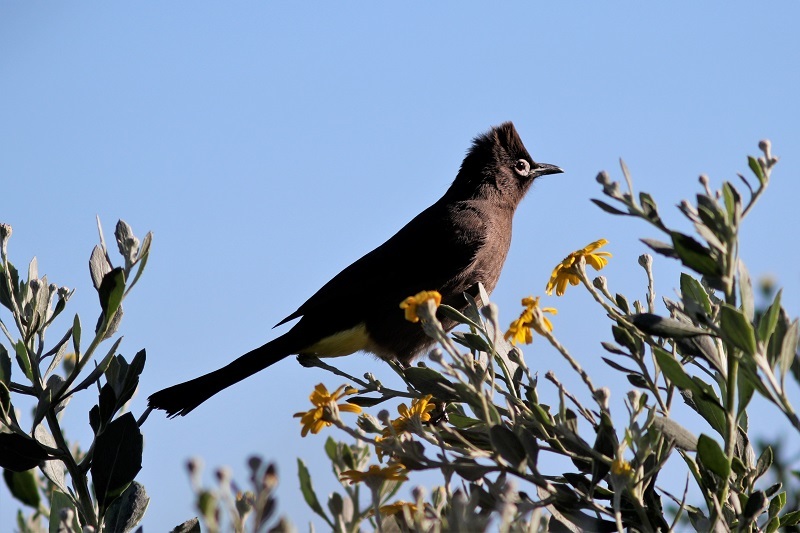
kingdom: Animalia
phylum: Chordata
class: Aves
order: Passeriformes
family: Pycnonotidae
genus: Pycnonotus
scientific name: Pycnonotus capensis
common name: Cape bulbul
